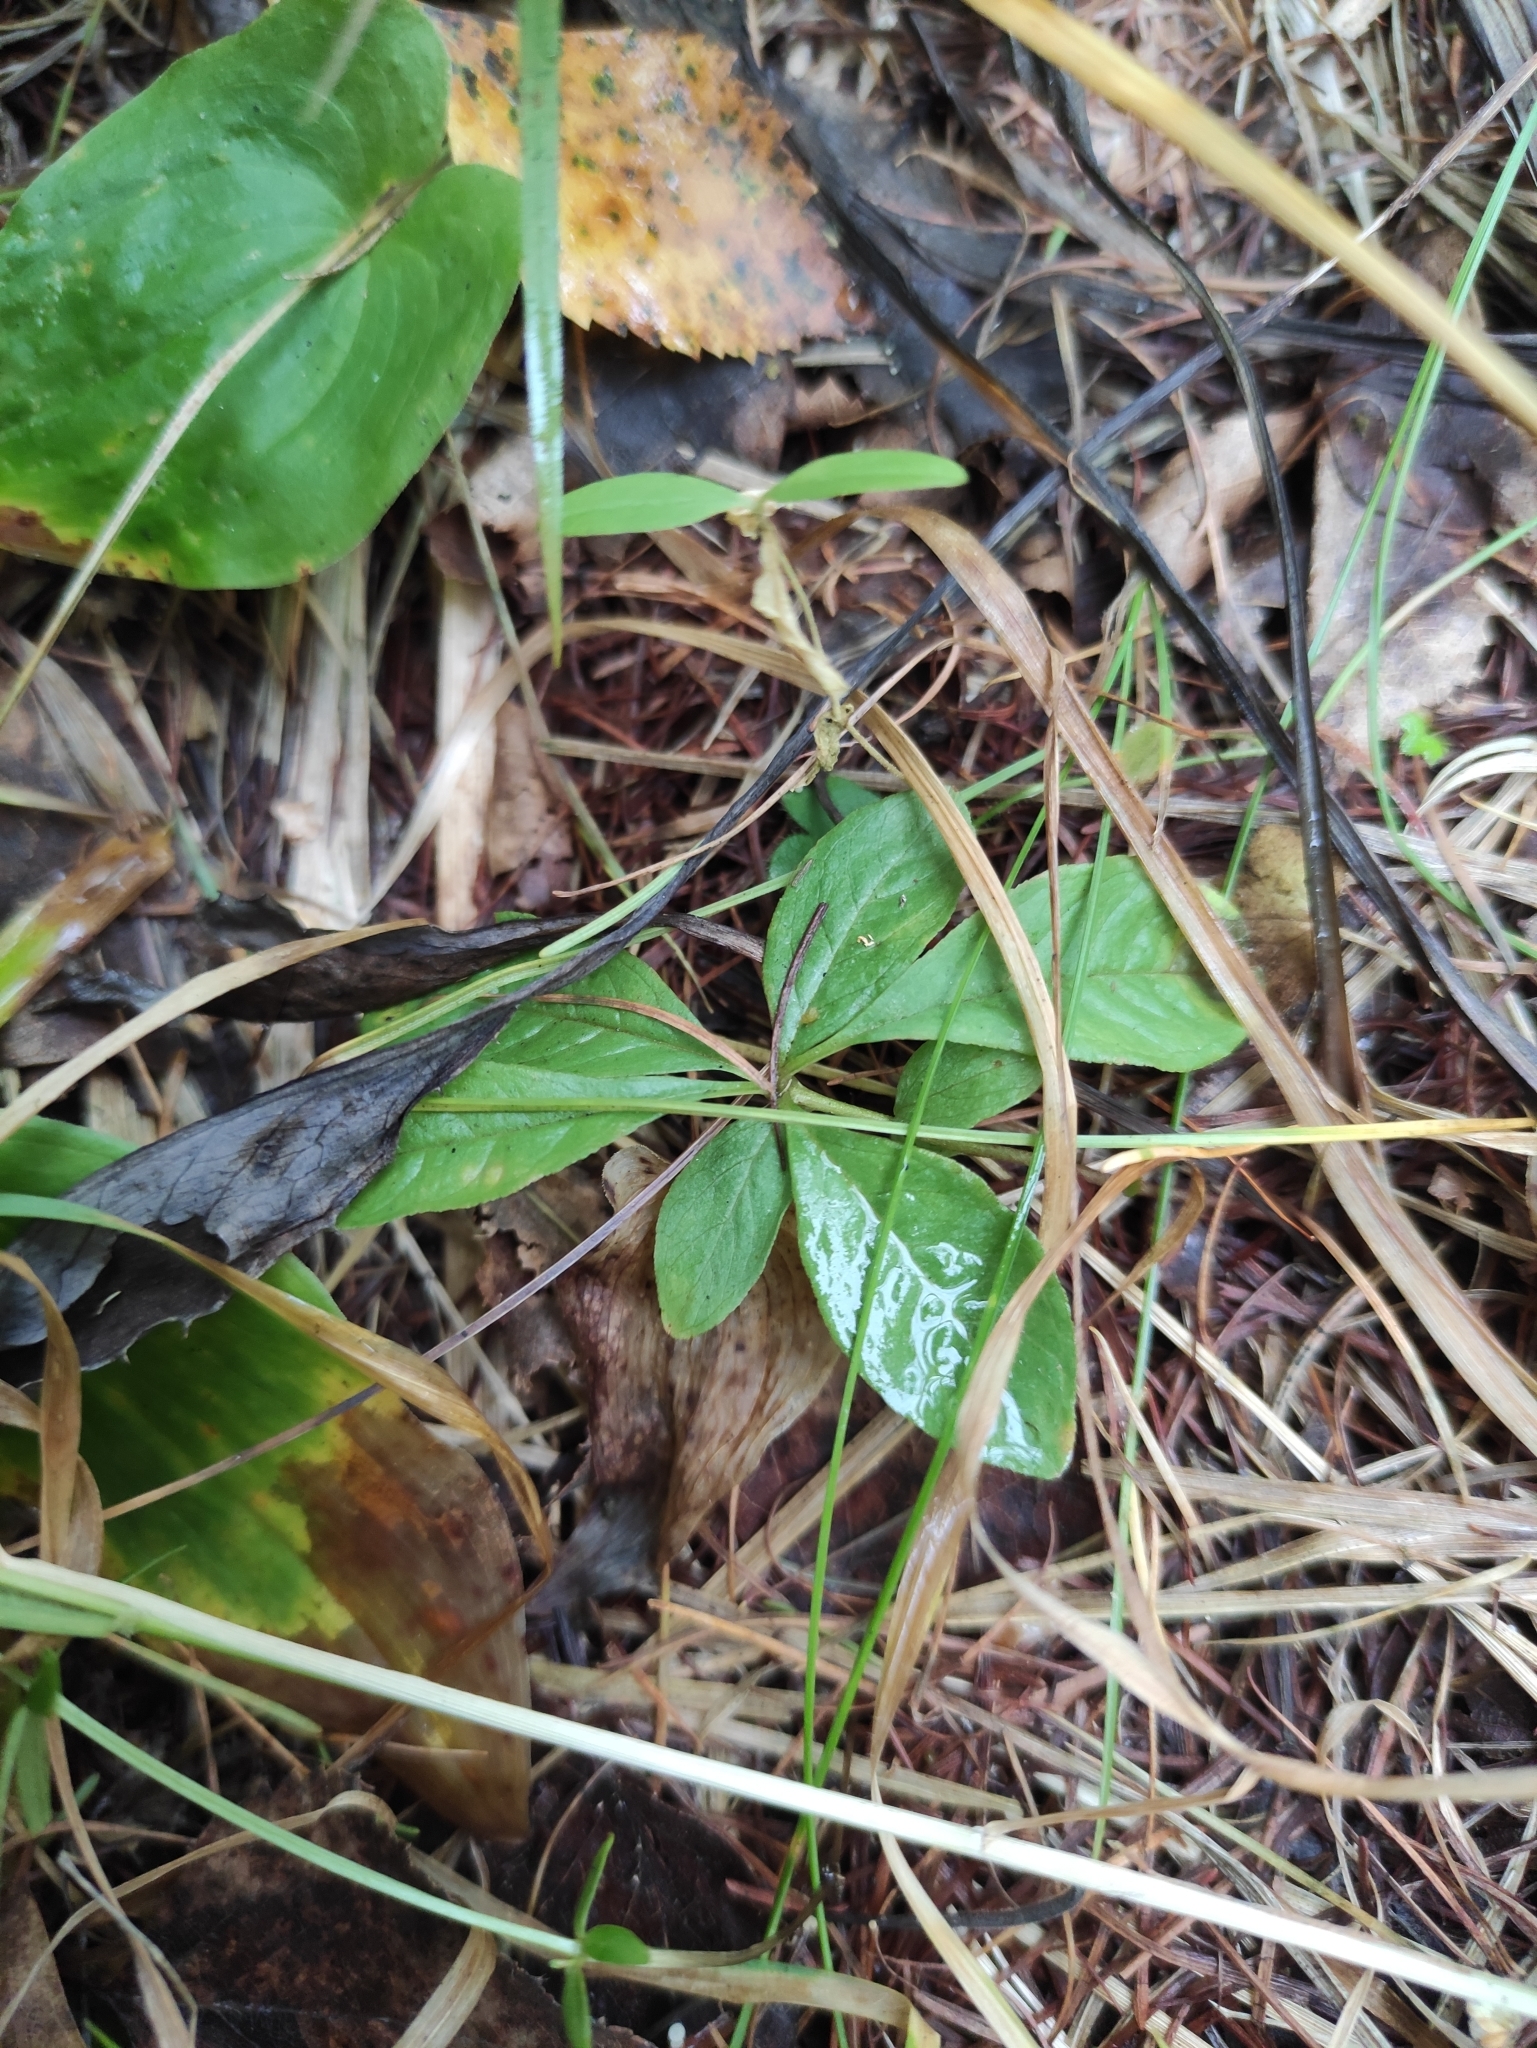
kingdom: Plantae
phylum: Tracheophyta
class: Magnoliopsida
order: Ericales
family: Primulaceae
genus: Lysimachia
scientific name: Lysimachia europaea
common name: Arctic starflower
